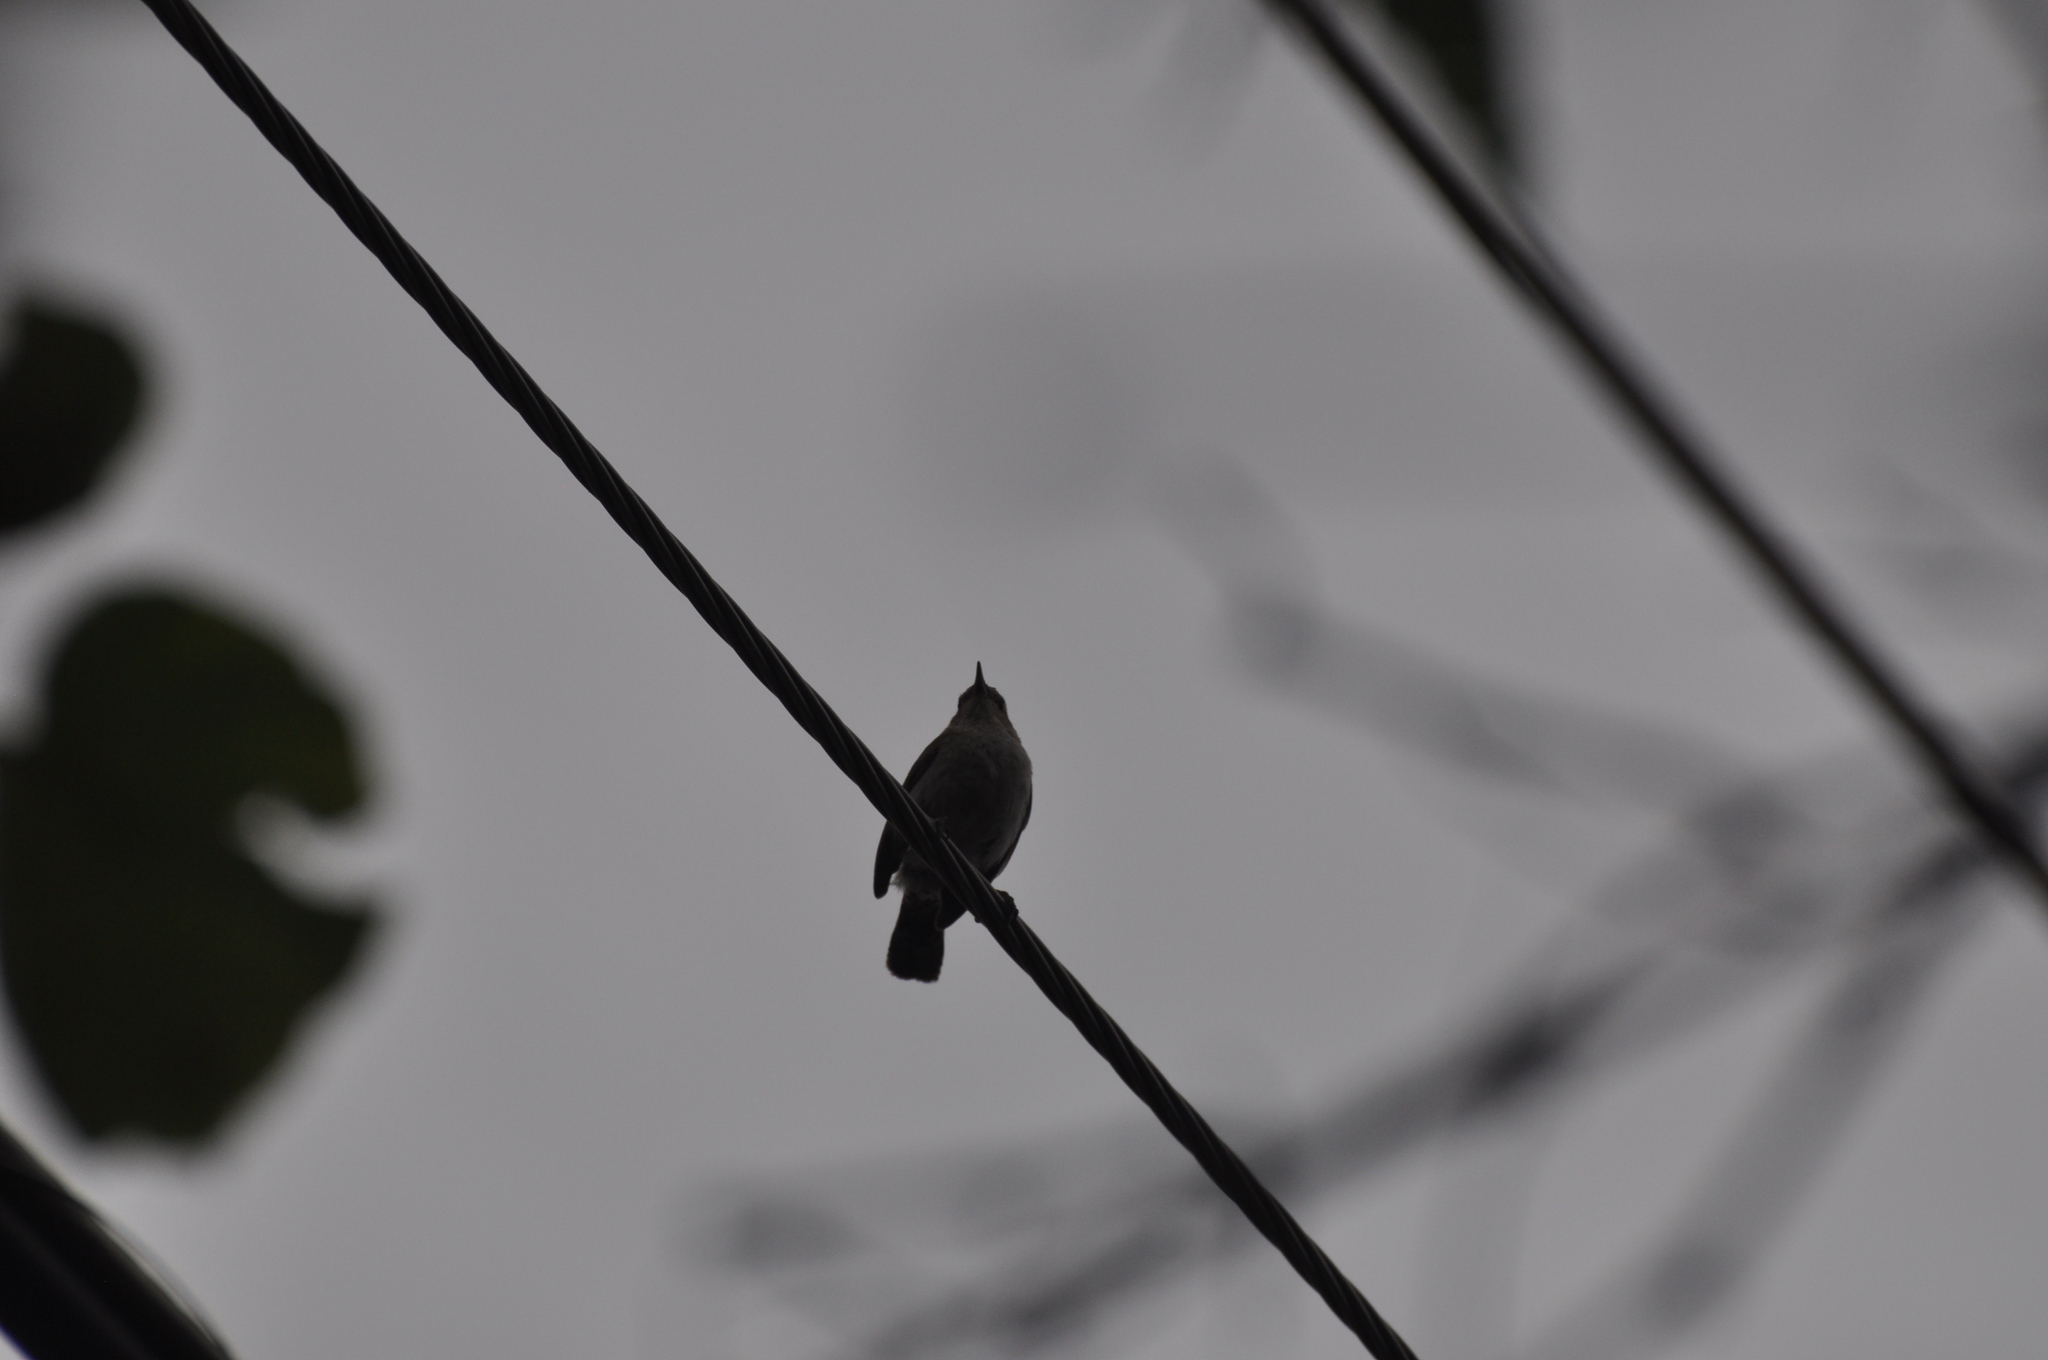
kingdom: Animalia
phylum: Chordata
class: Aves
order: Passeriformes
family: Troglodytidae
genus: Thryomanes
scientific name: Thryomanes bewickii
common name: Bewick's wren
